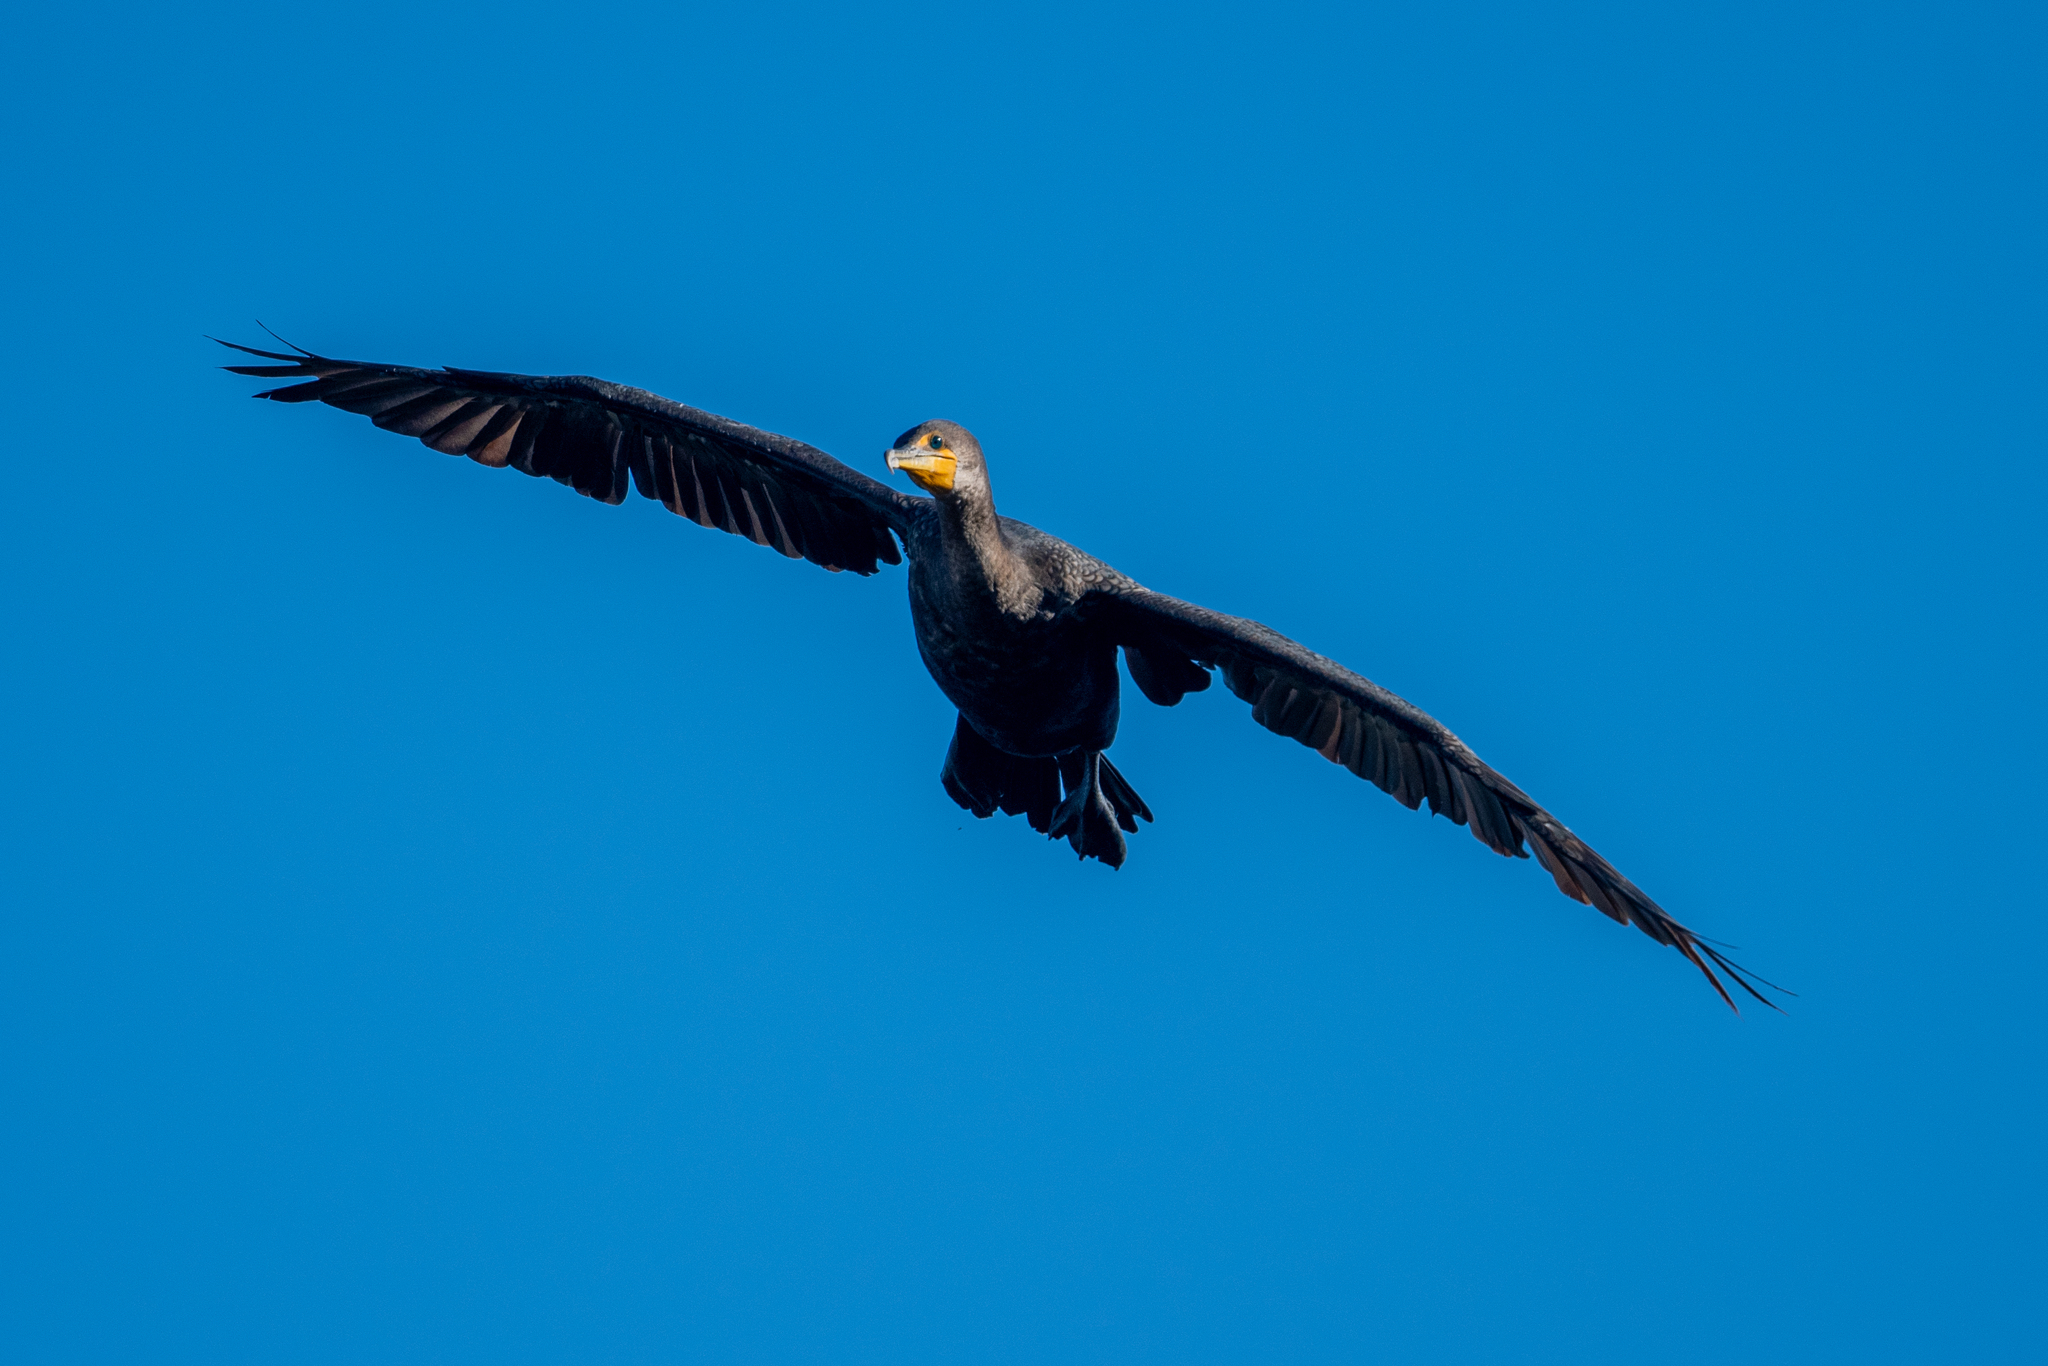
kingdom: Animalia
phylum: Chordata
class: Aves
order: Suliformes
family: Phalacrocoracidae
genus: Phalacrocorax
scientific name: Phalacrocorax auritus
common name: Double-crested cormorant
